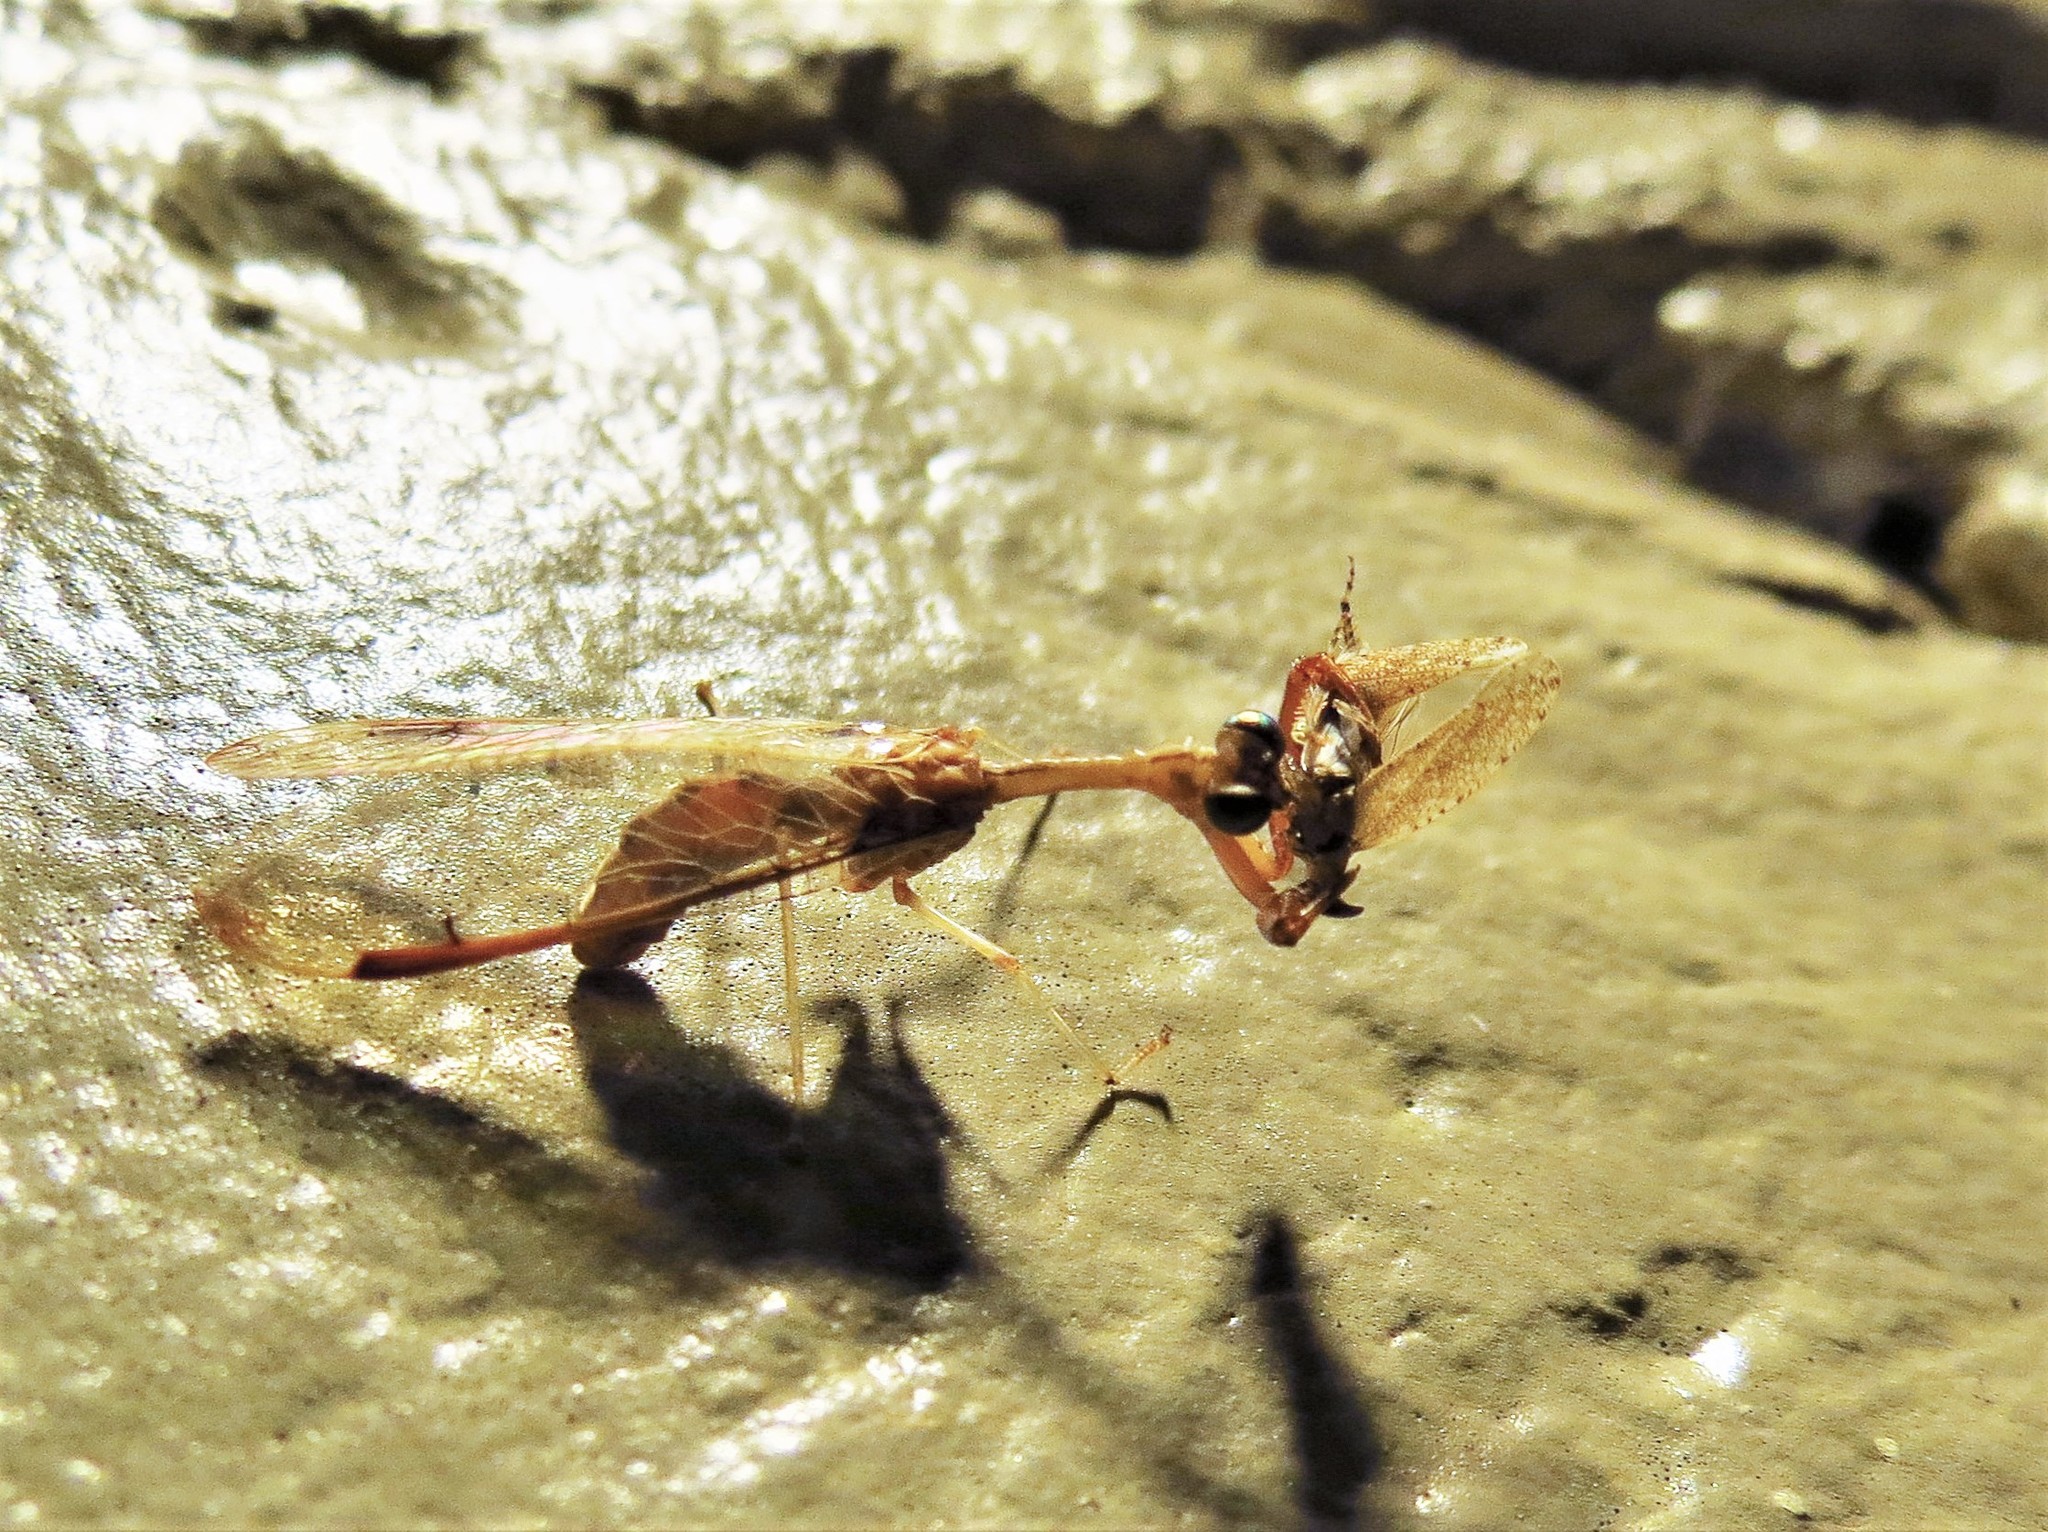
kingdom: Animalia
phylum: Arthropoda
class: Insecta
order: Neuroptera
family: Mantispidae
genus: Dicromantispa
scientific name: Dicromantispa interrupta
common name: Four-spotted mantidfly
